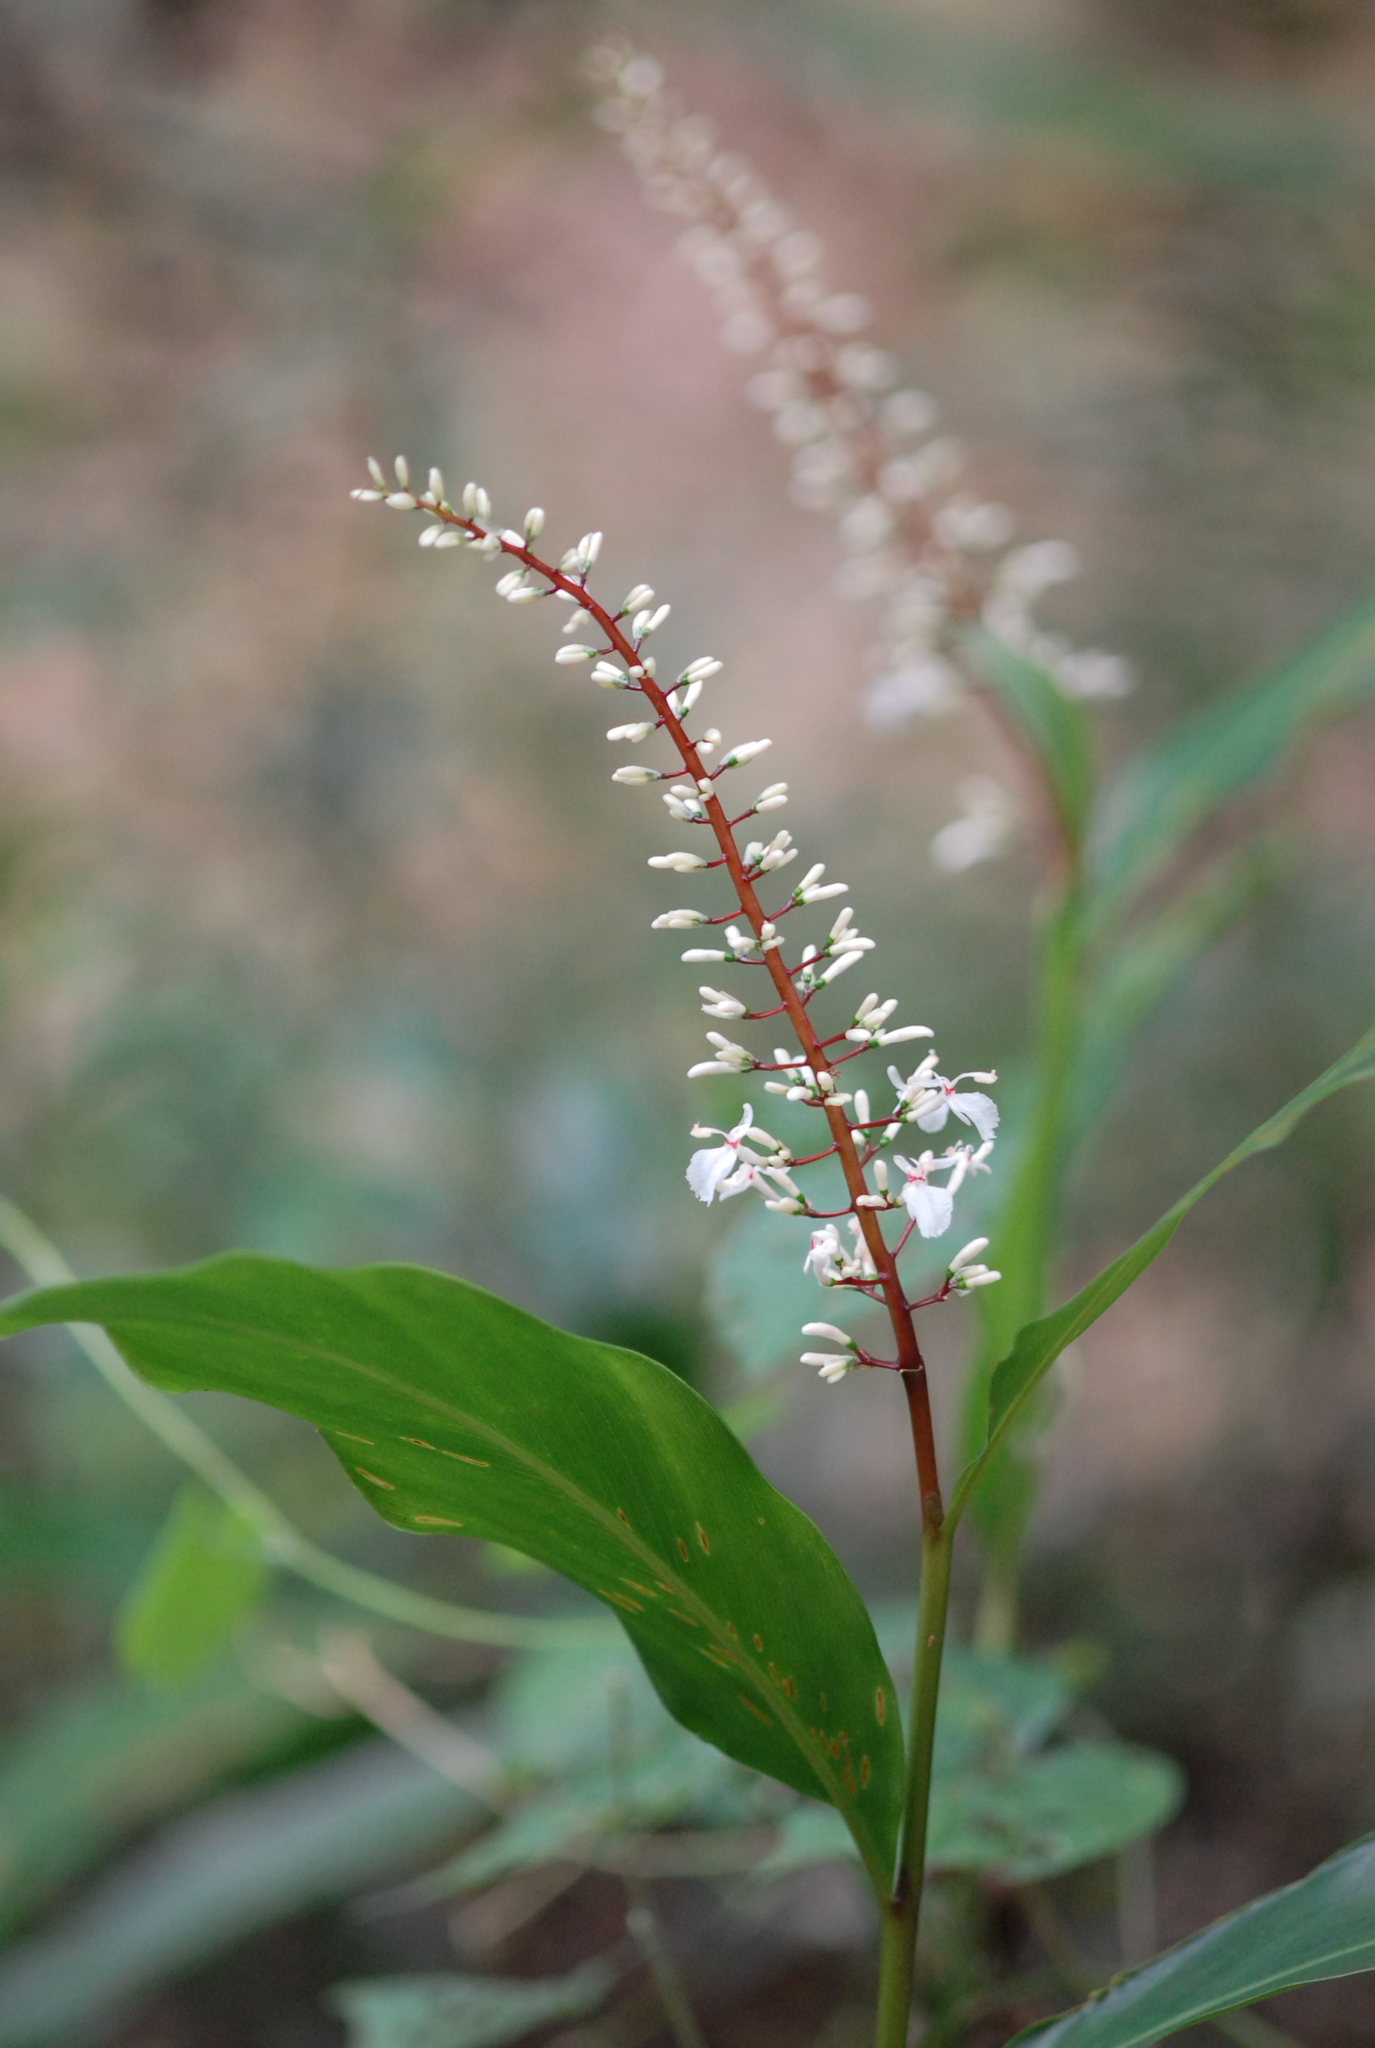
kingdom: Plantae
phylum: Tracheophyta
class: Liliopsida
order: Zingiberales
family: Zingiberaceae
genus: Alpinia
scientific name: Alpinia intermedia
